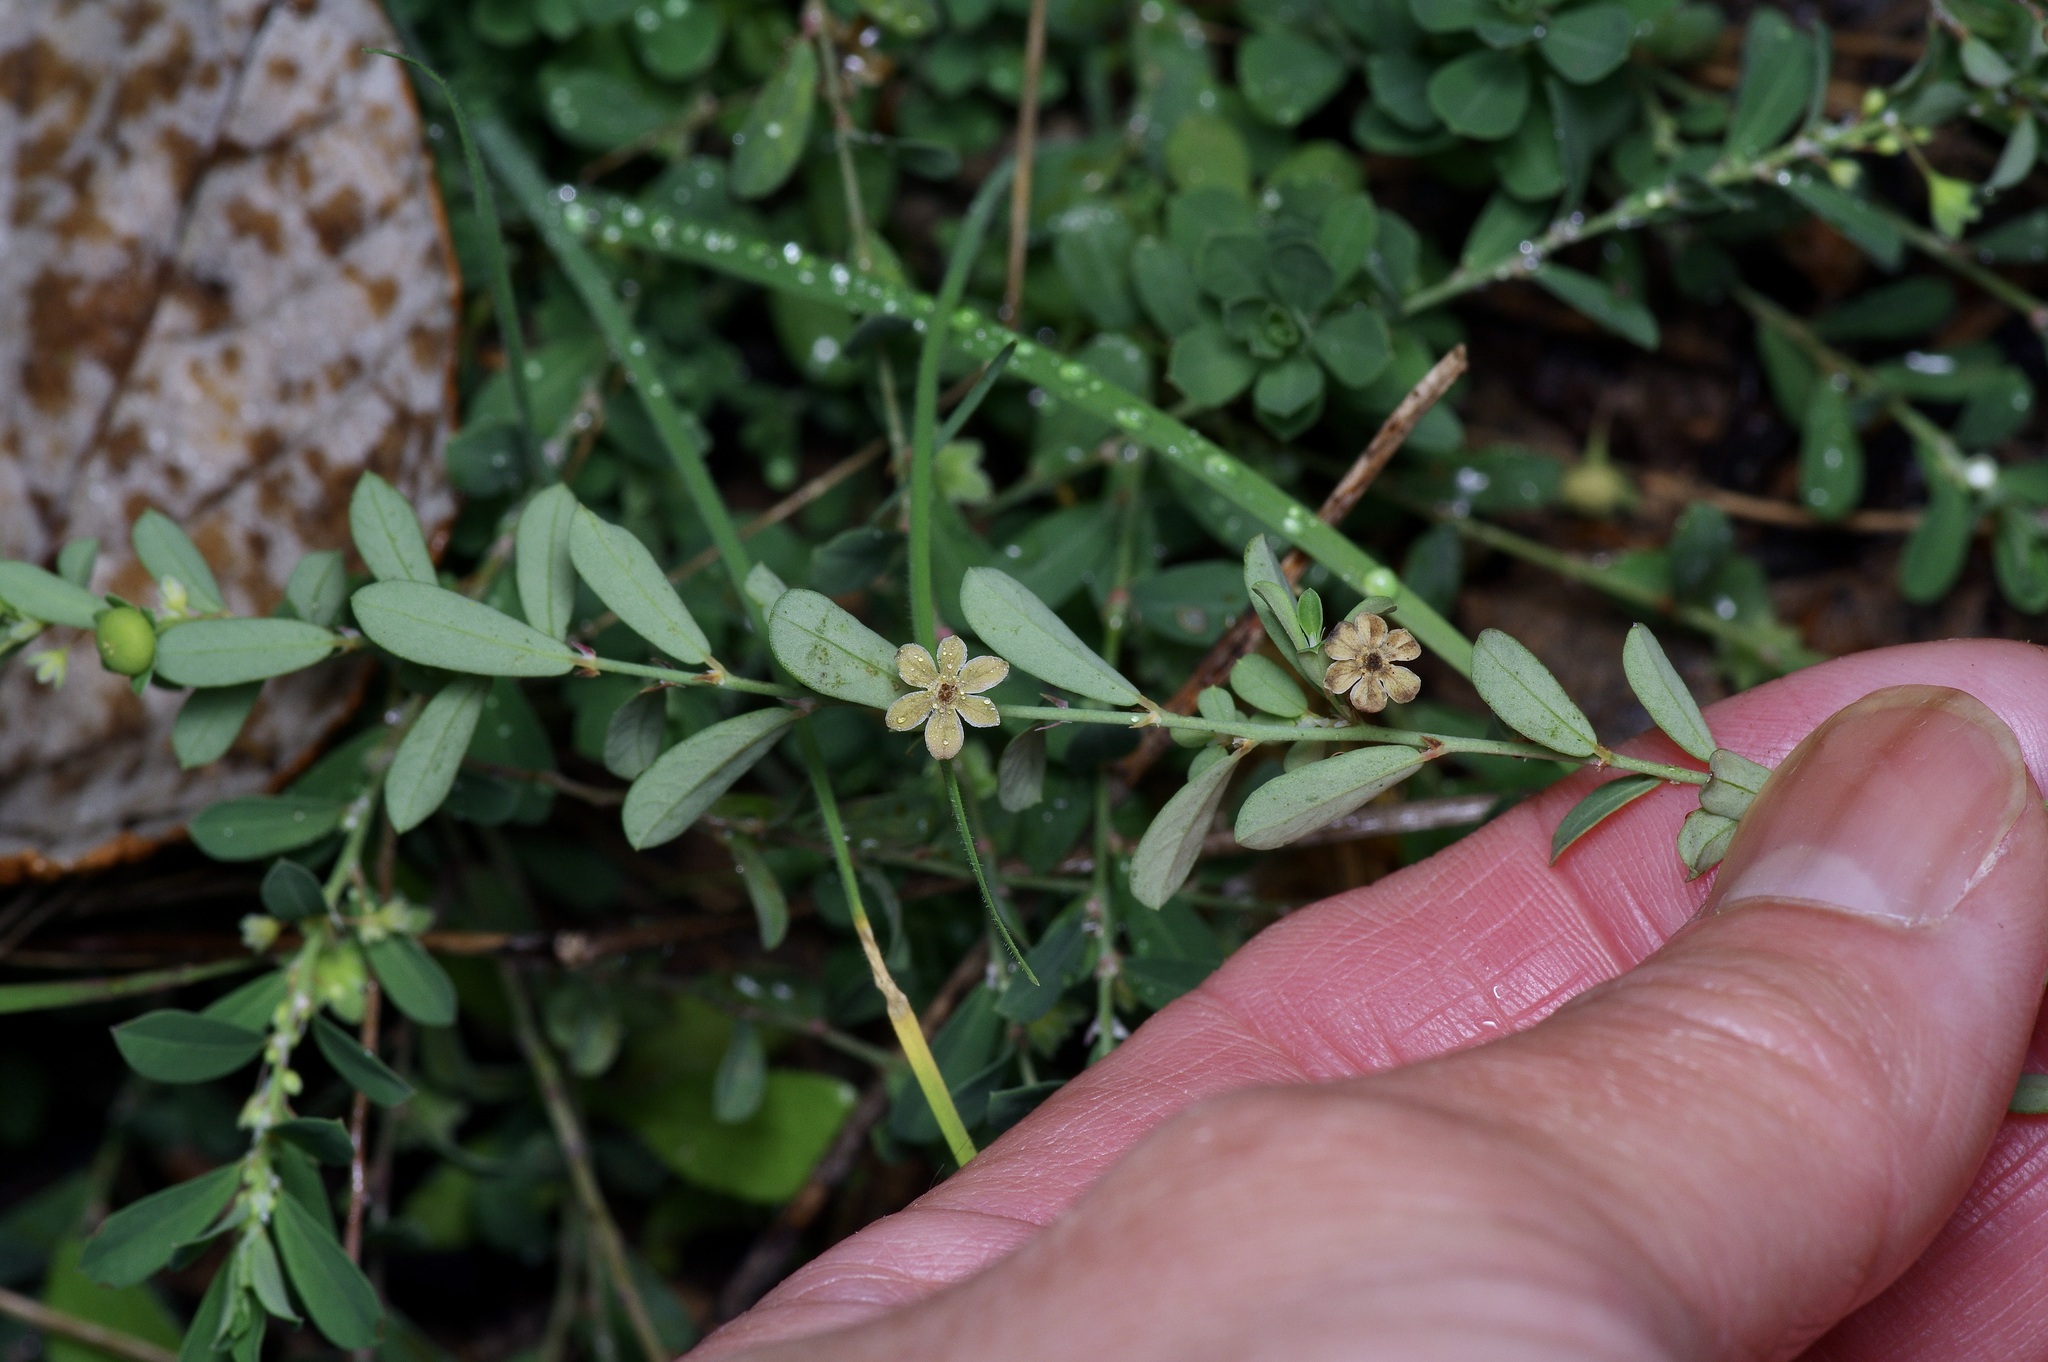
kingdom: Plantae
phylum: Tracheophyta
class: Magnoliopsida
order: Malpighiales
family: Phyllanthaceae
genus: Phyllanthus
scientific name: Phyllanthus polygonoides
